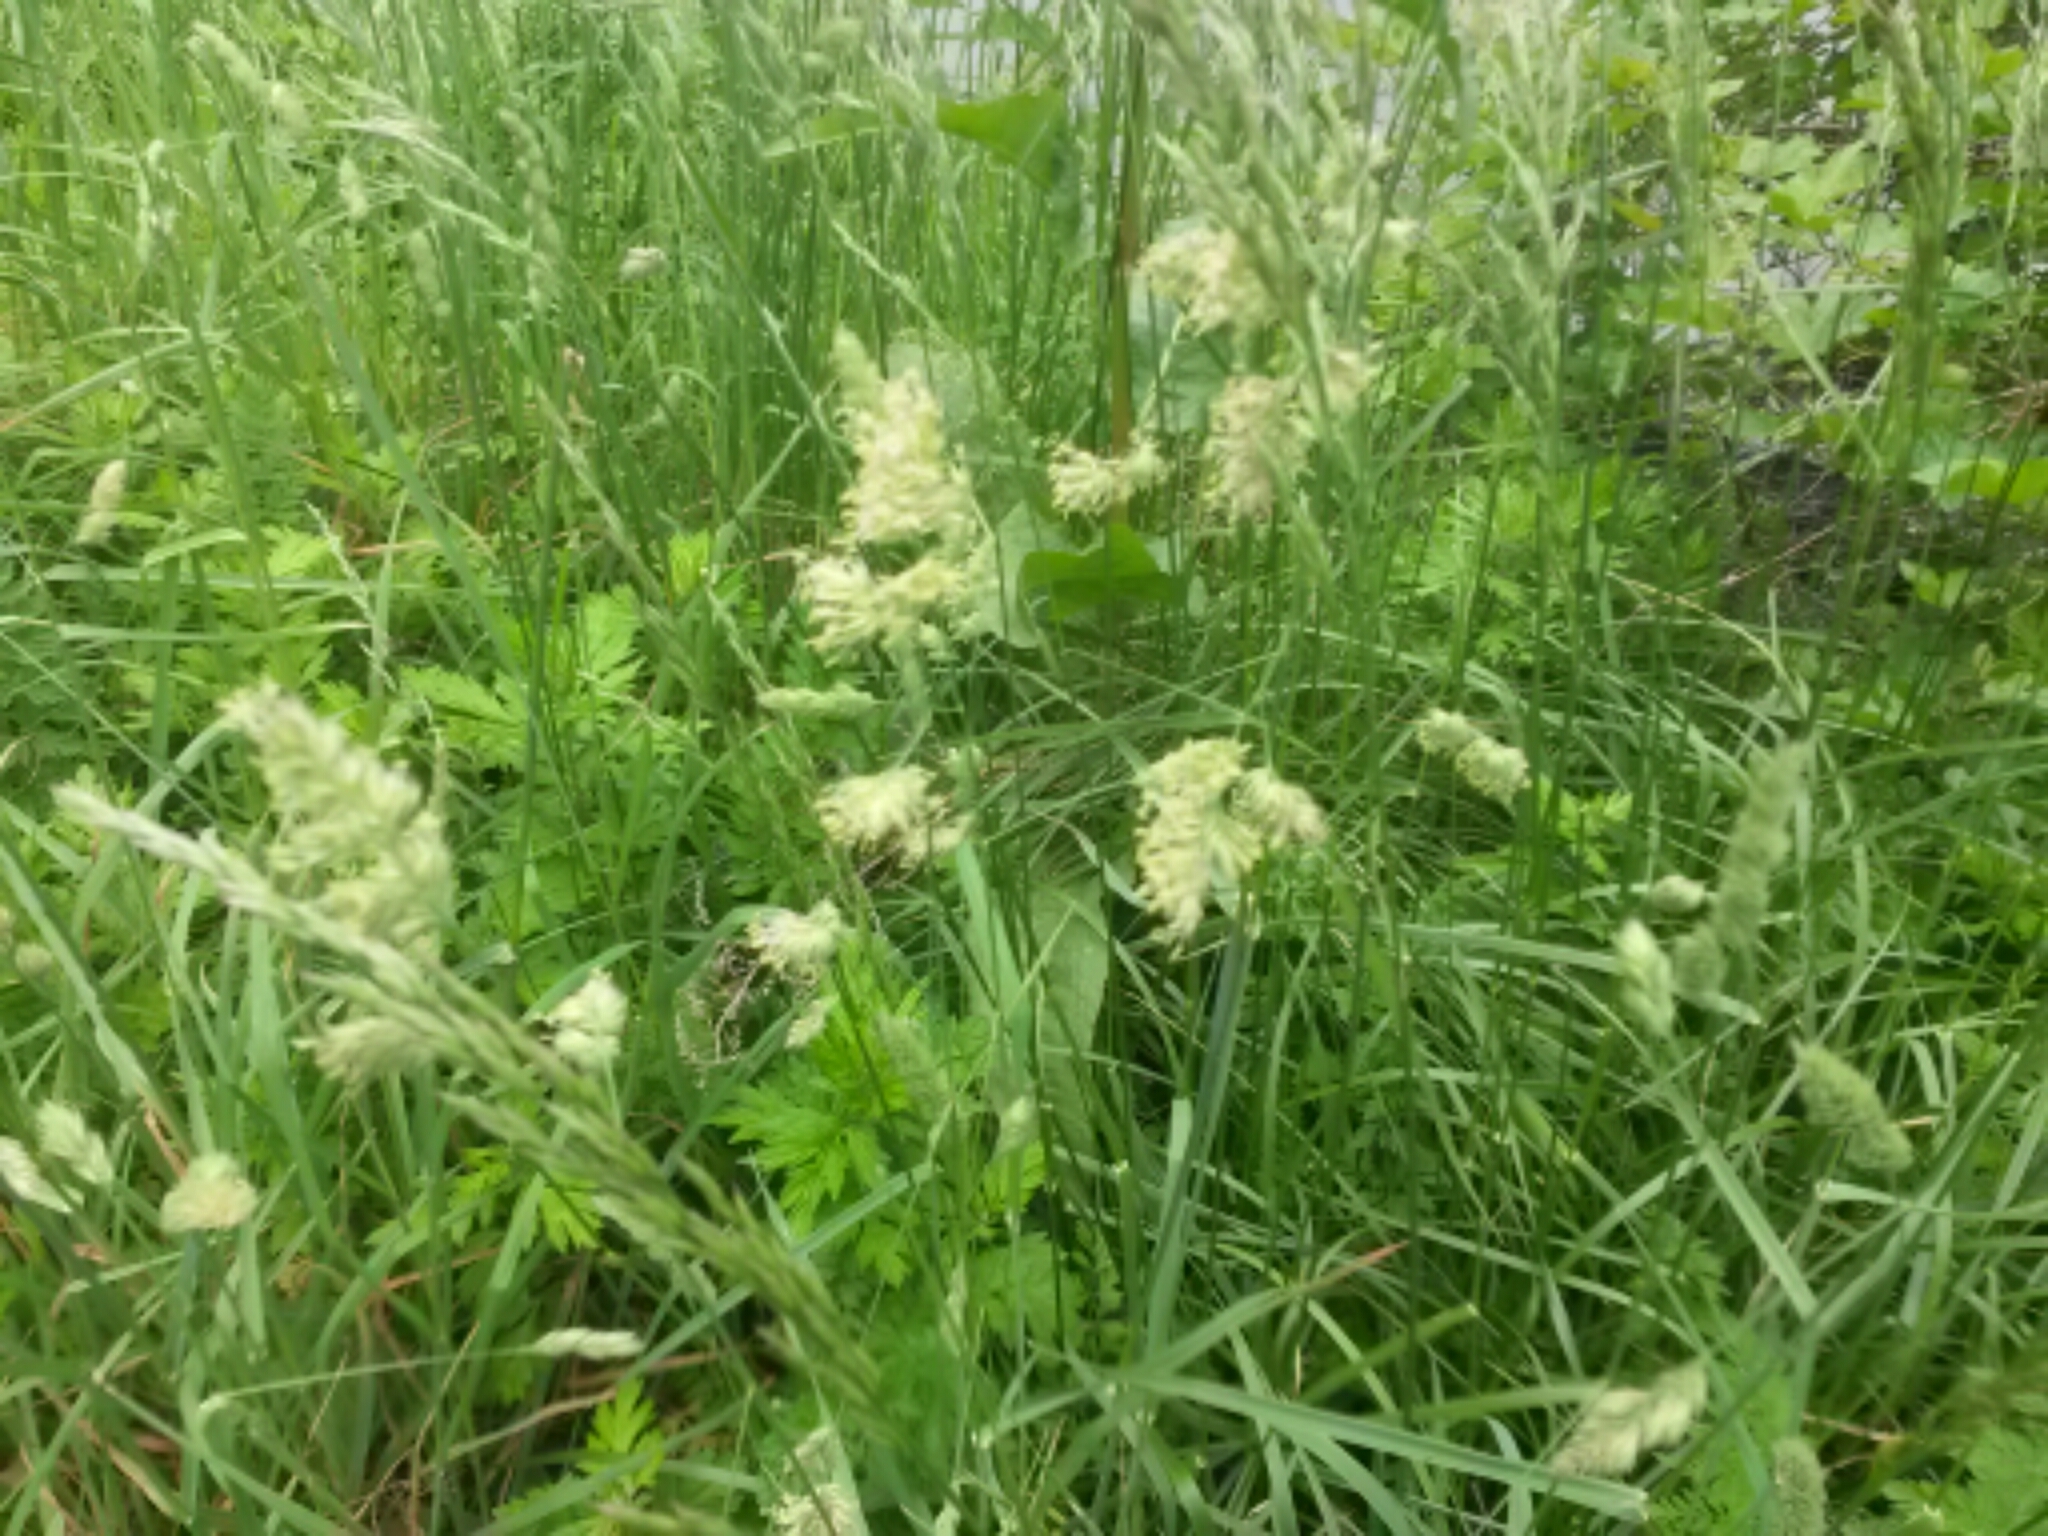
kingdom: Plantae
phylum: Tracheophyta
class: Liliopsida
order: Poales
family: Poaceae
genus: Dactylis
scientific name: Dactylis glomerata
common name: Orchardgrass
